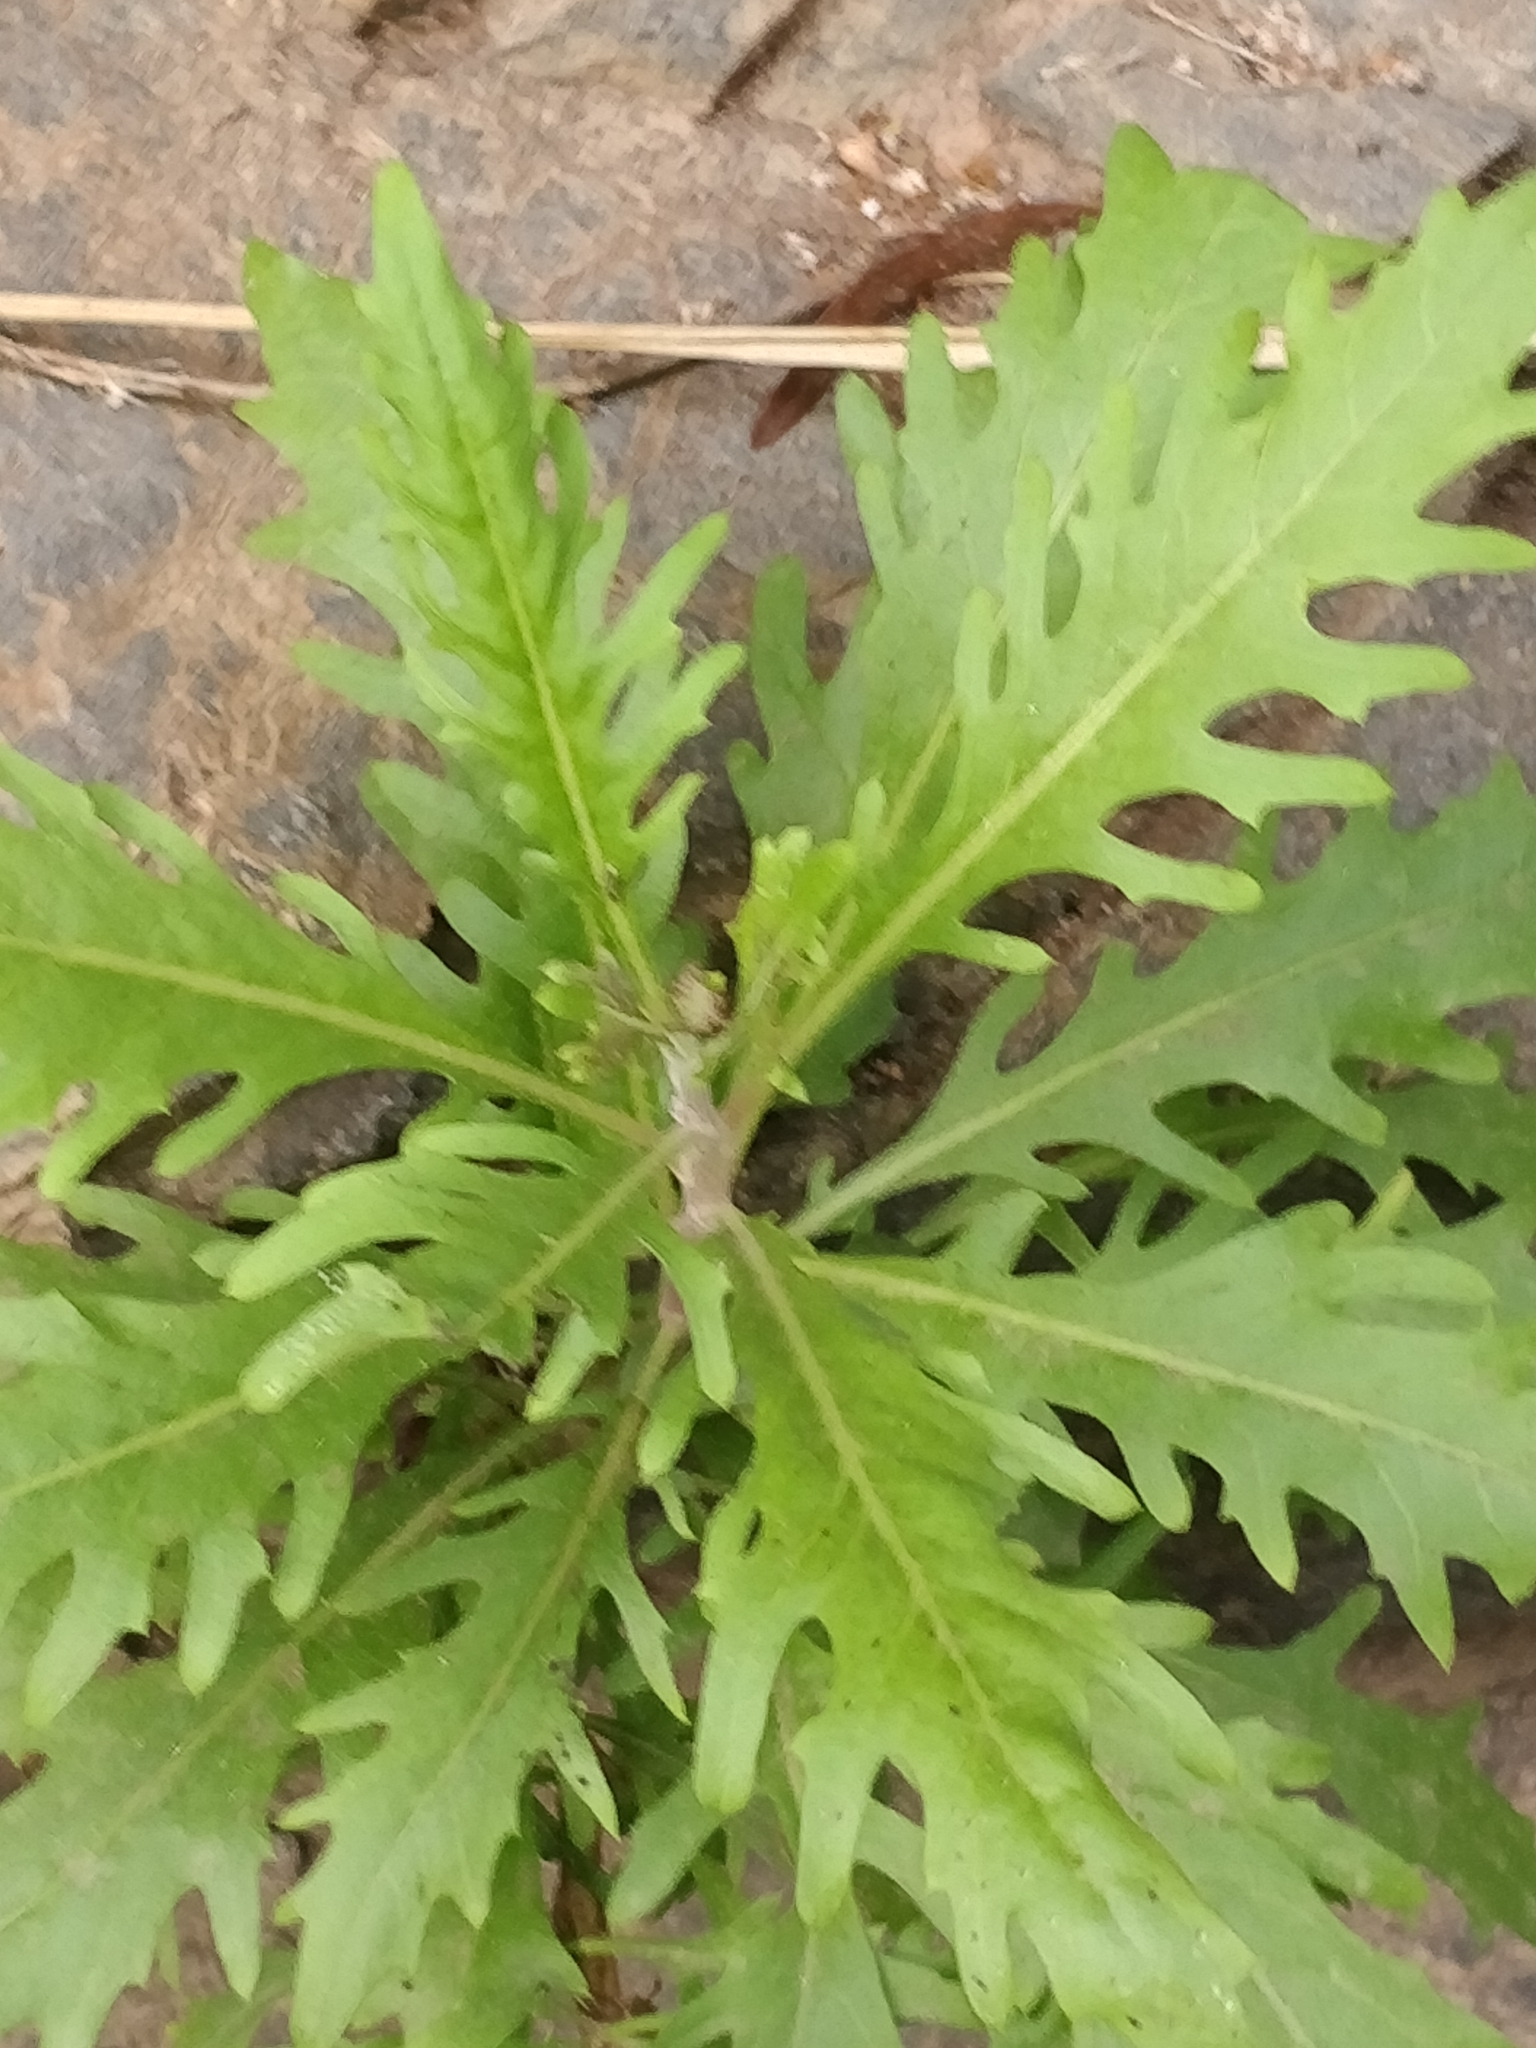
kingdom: Plantae
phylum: Tracheophyta
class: Magnoliopsida
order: Asterales
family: Asteraceae
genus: Argyranthemum
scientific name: Argyranthemum pinnatifidum
